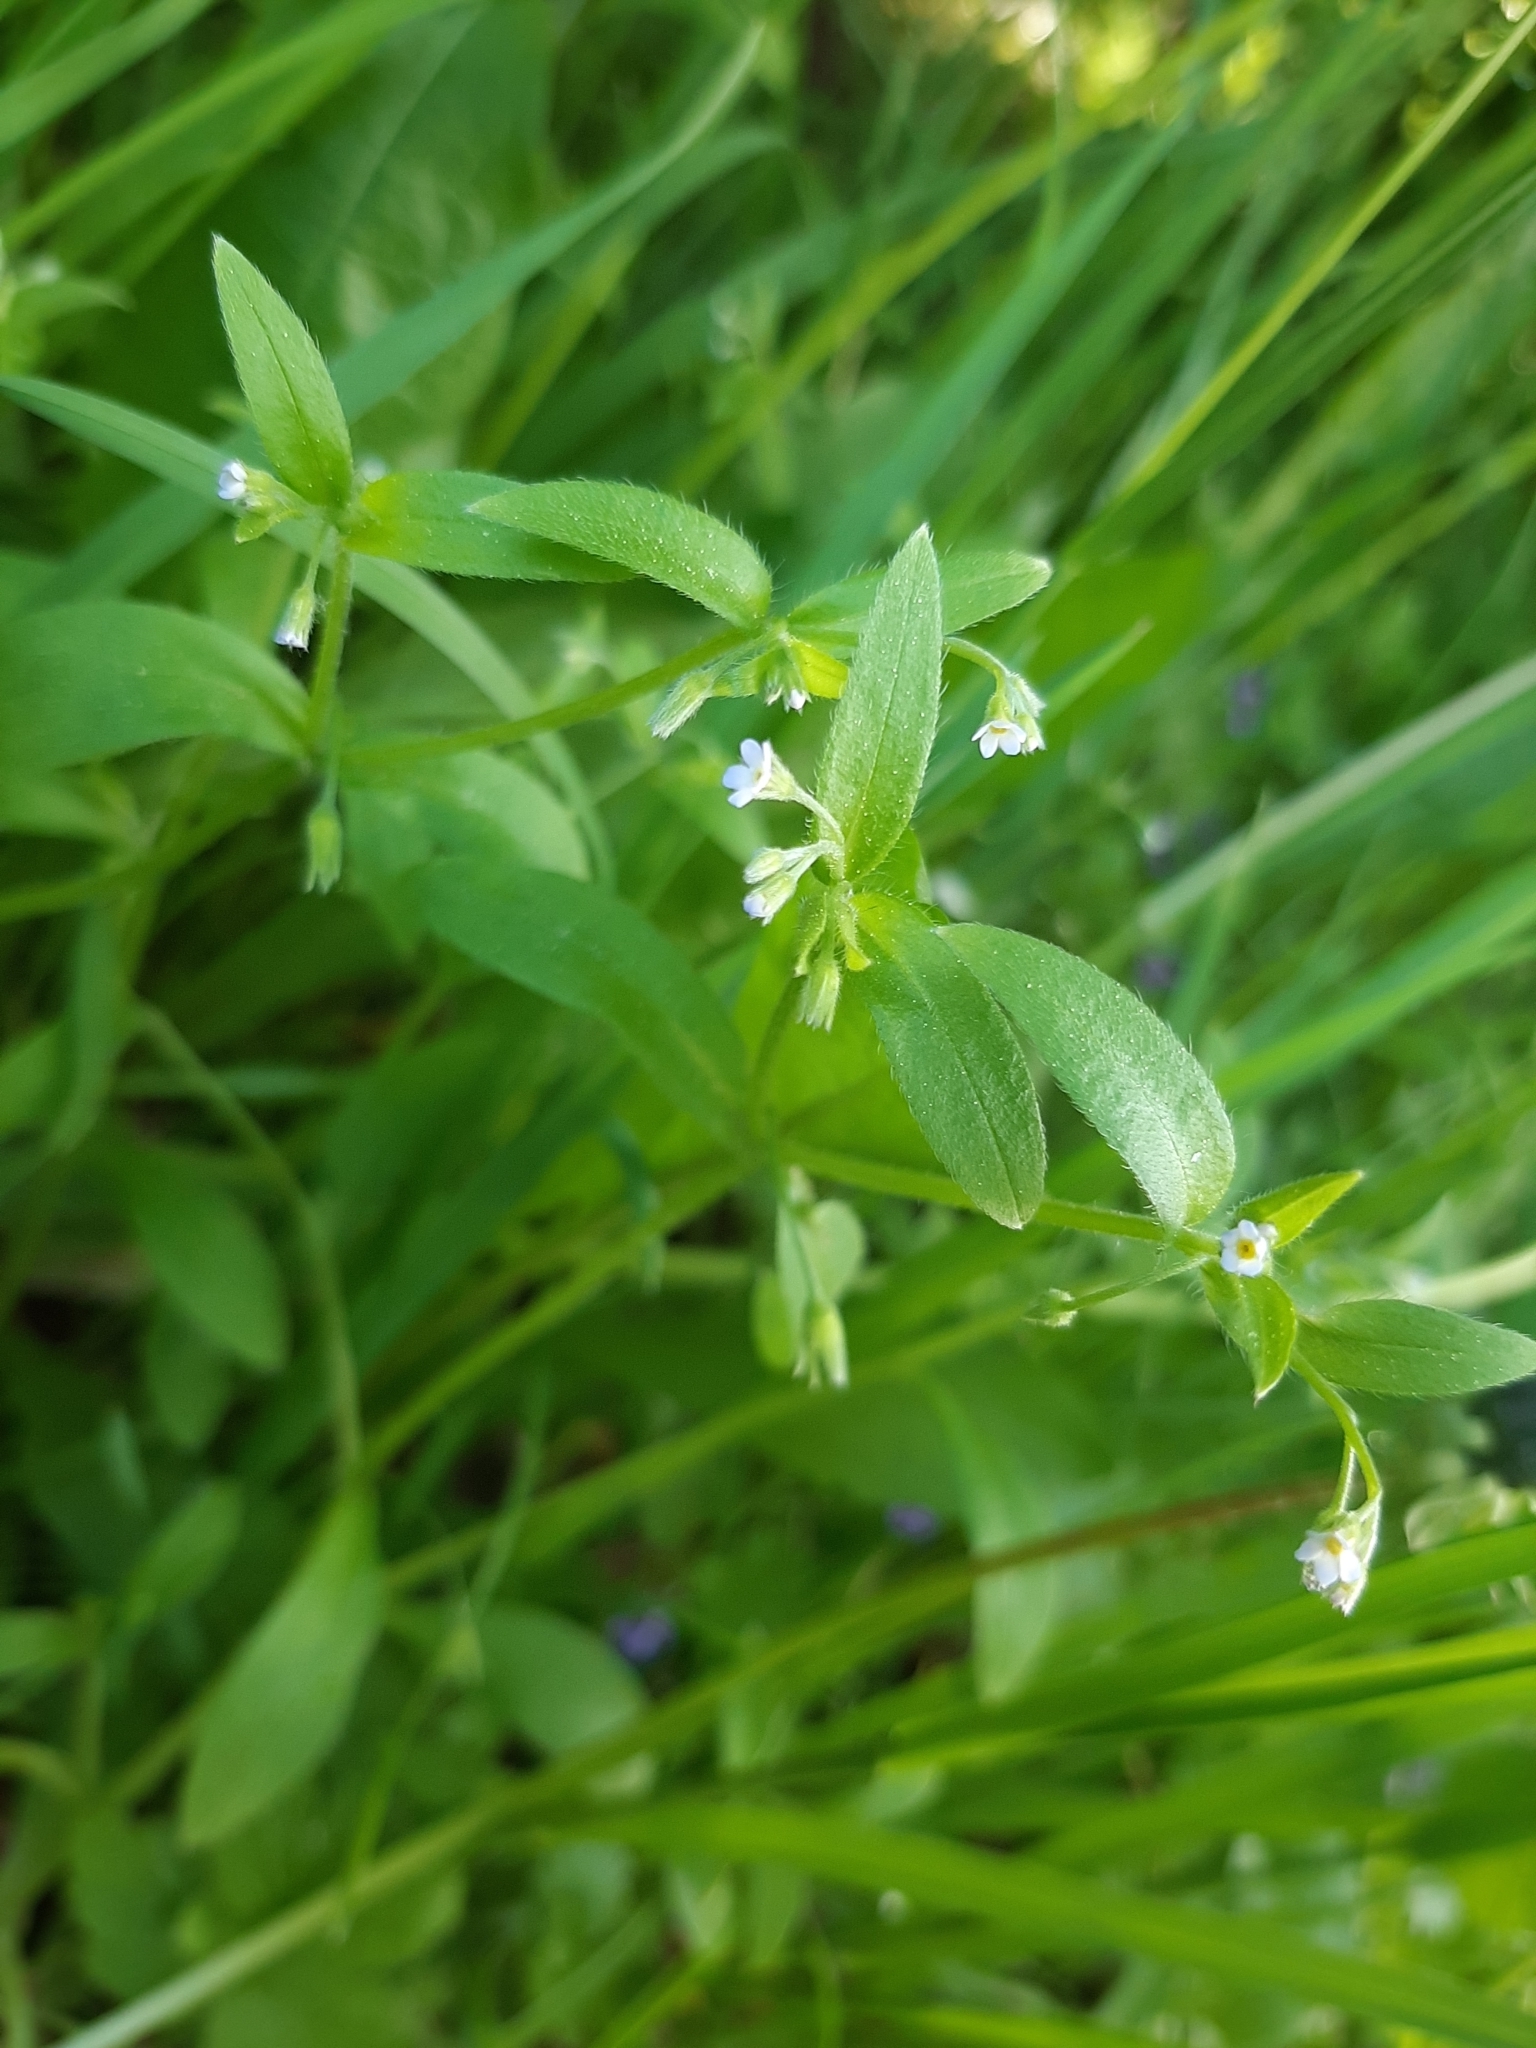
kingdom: Plantae
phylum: Tracheophyta
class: Magnoliopsida
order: Boraginales
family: Boraginaceae
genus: Myosotis
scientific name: Myosotis sparsiflora
